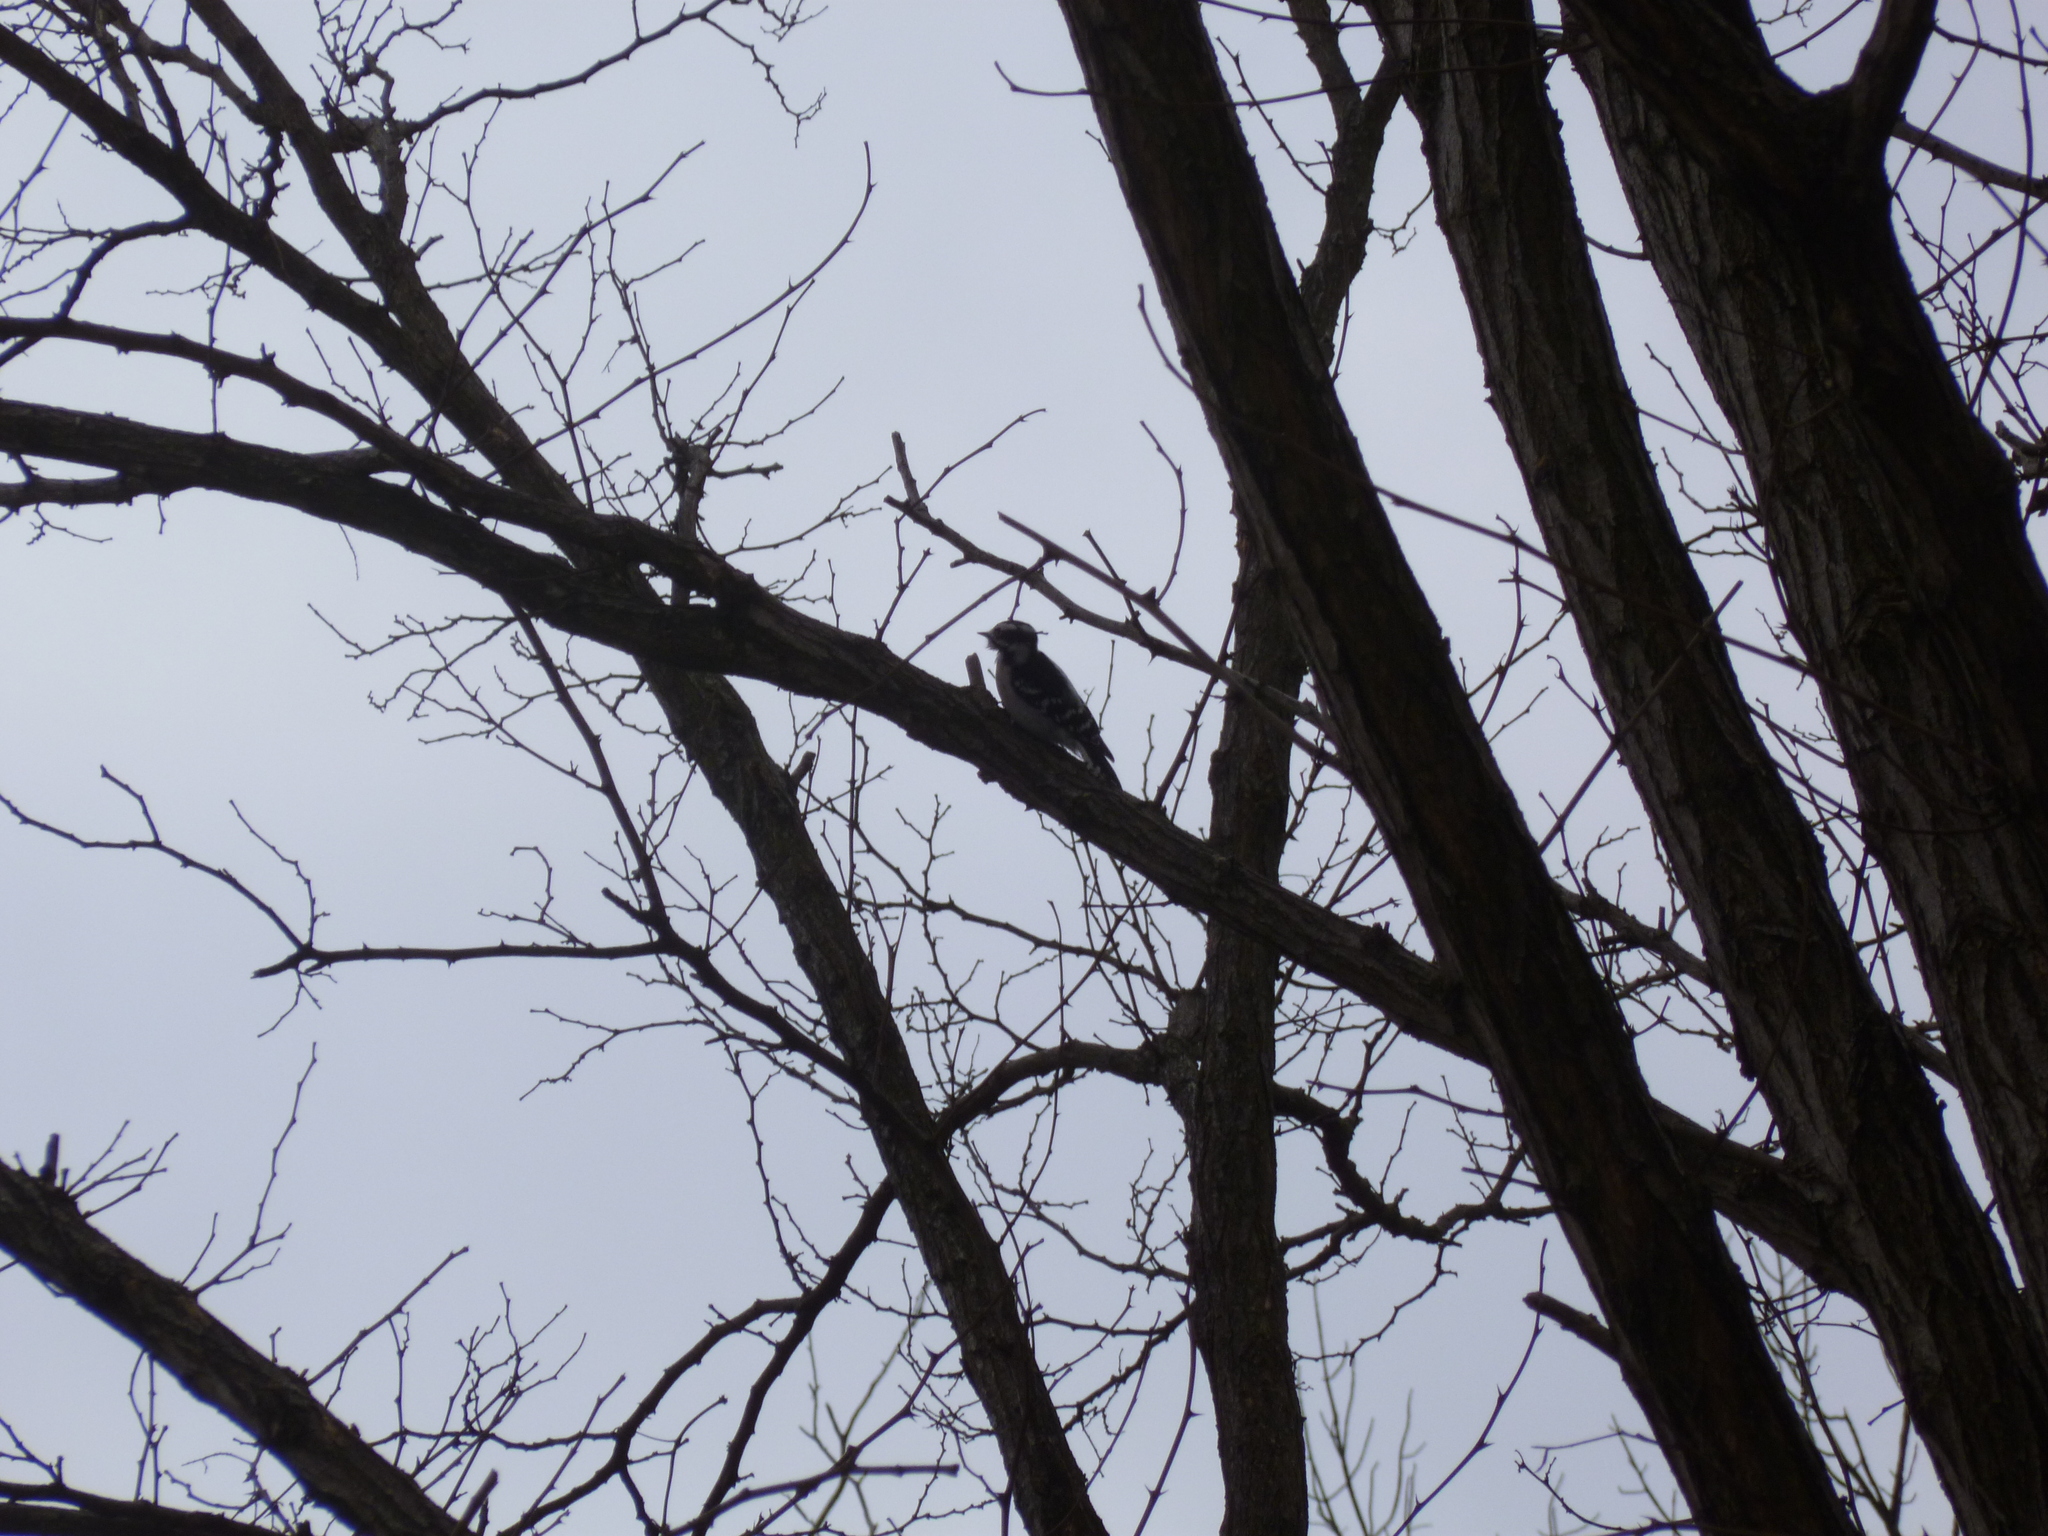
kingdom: Animalia
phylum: Chordata
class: Aves
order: Piciformes
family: Picidae
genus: Dryobates
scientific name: Dryobates pubescens
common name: Downy woodpecker
